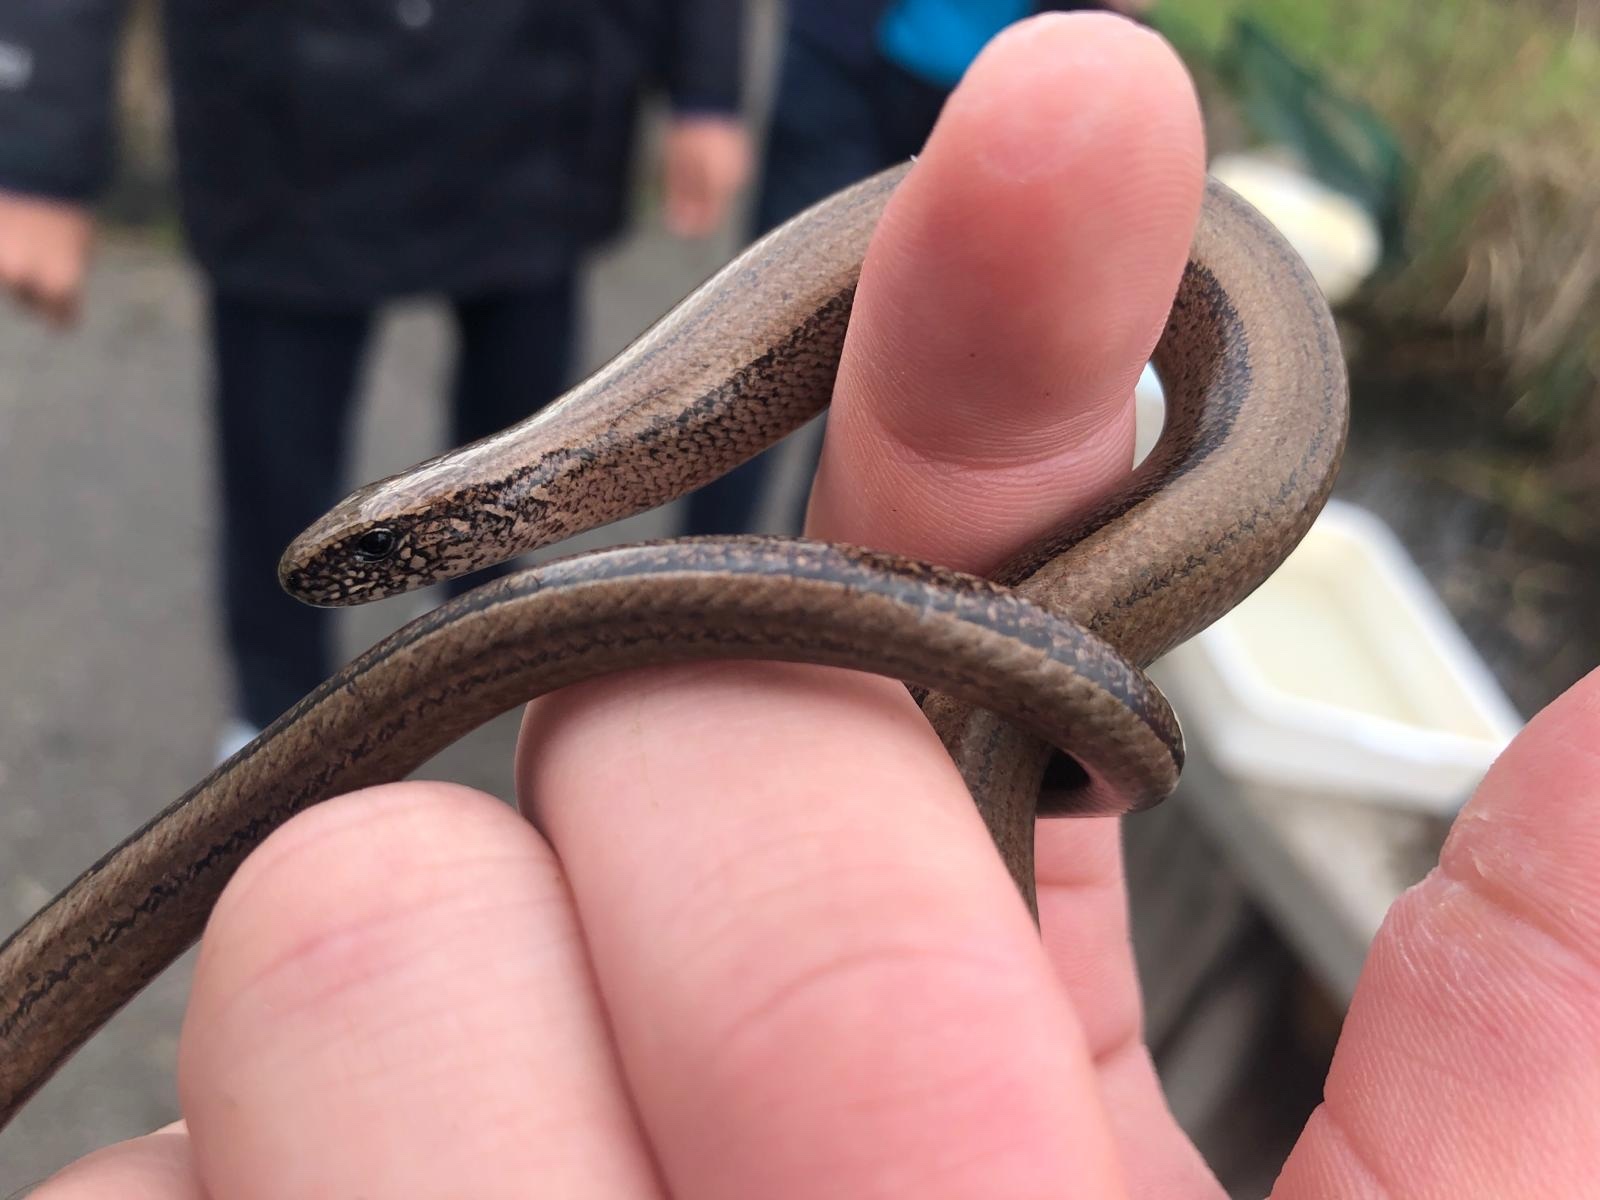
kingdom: Animalia
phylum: Chordata
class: Squamata
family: Anguidae
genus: Anguis
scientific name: Anguis fragilis
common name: Slow worm
